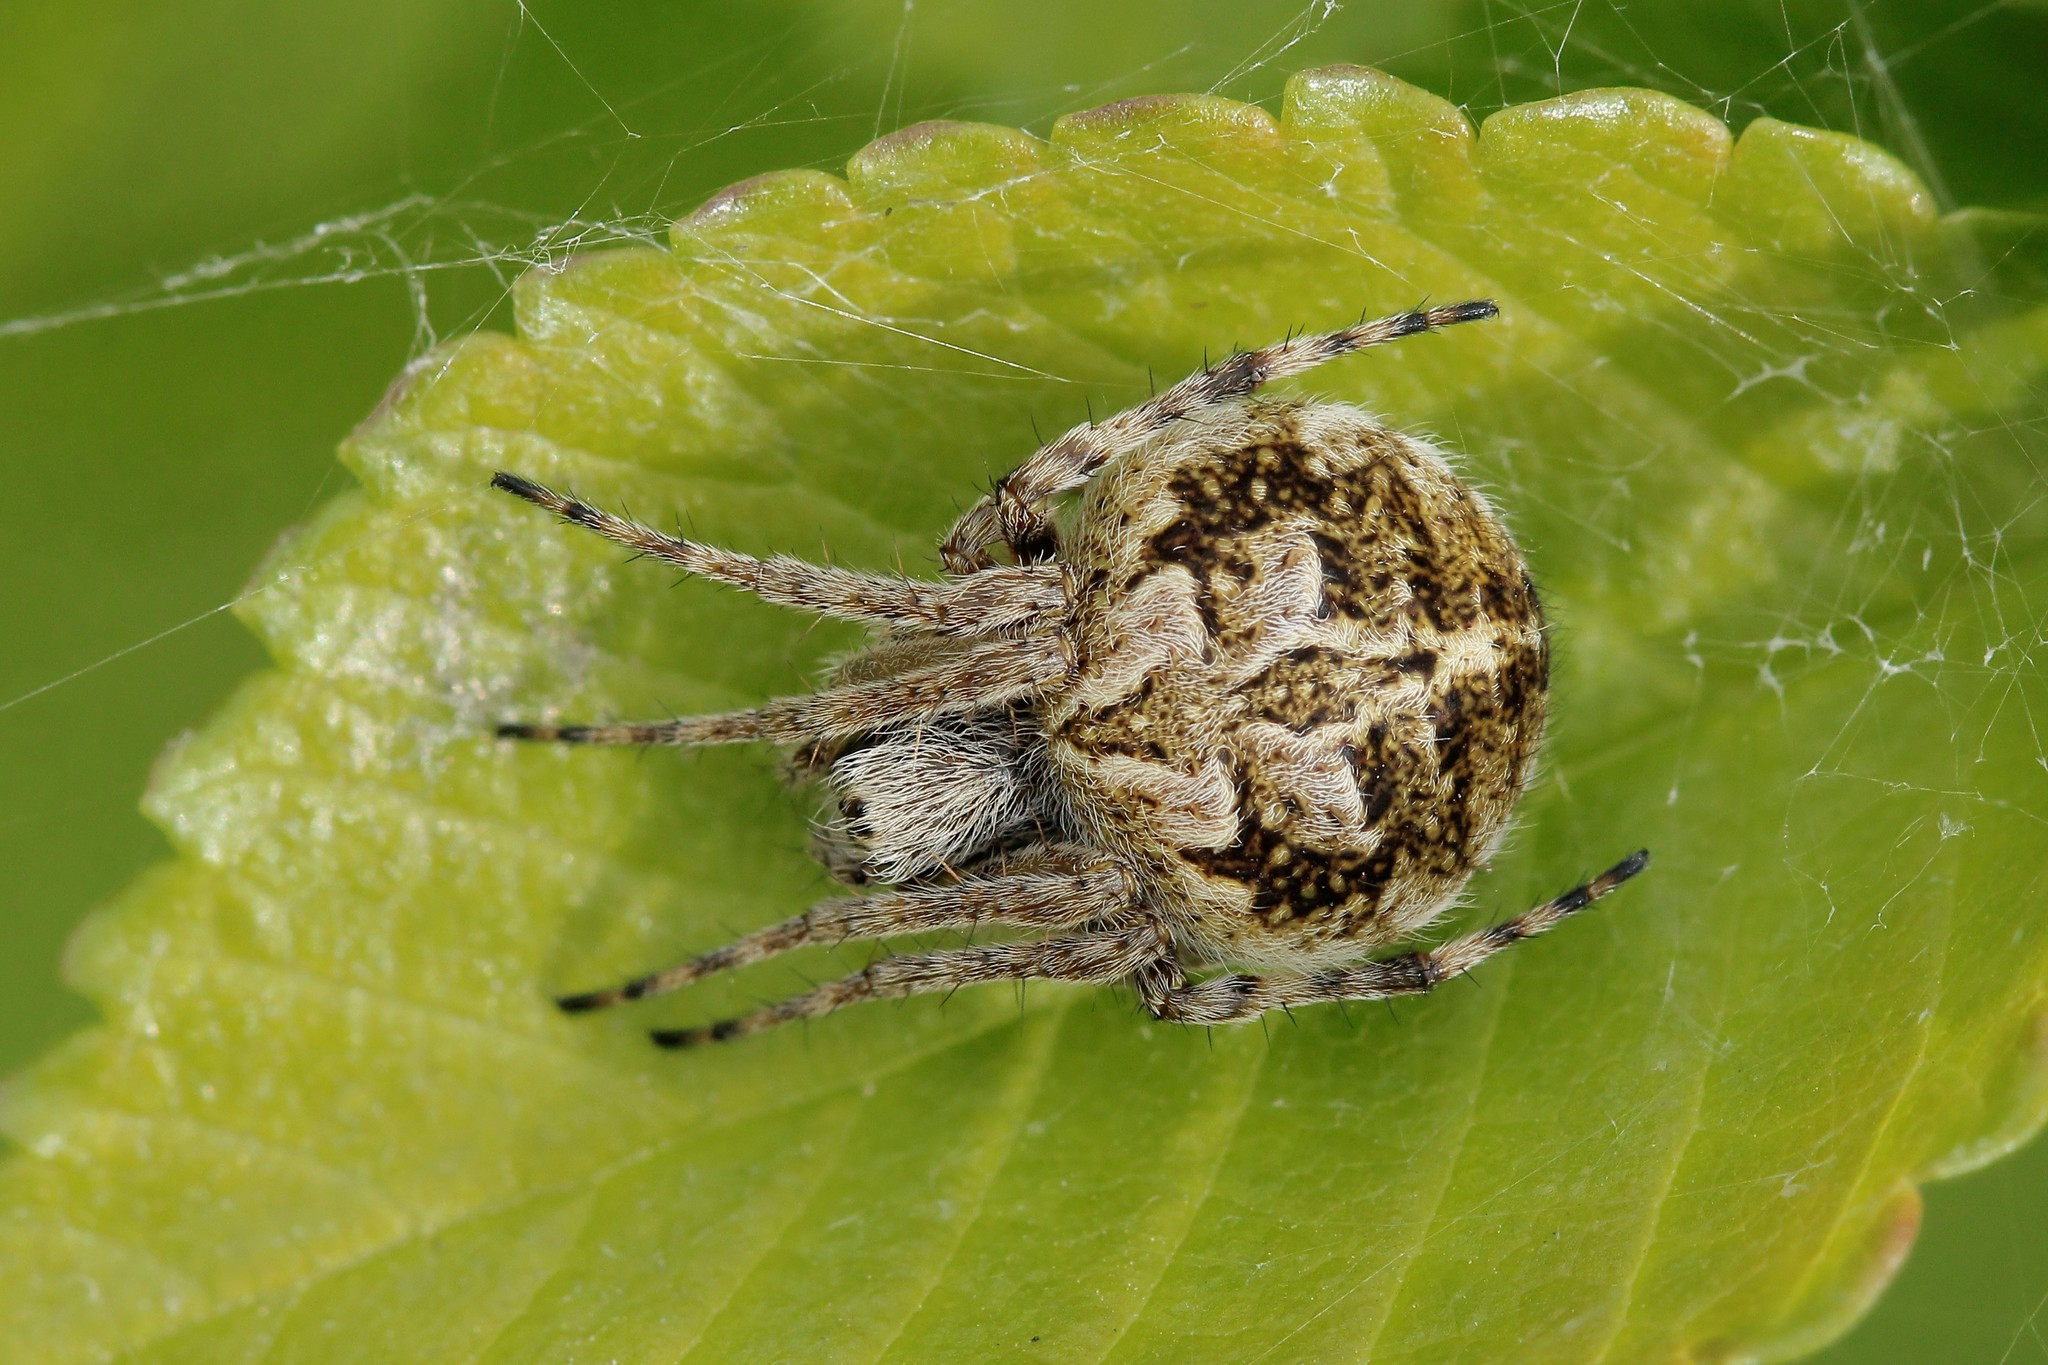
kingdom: Animalia
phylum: Arthropoda
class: Arachnida
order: Araneae
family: Araneidae
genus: Agalenatea
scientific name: Agalenatea redii
